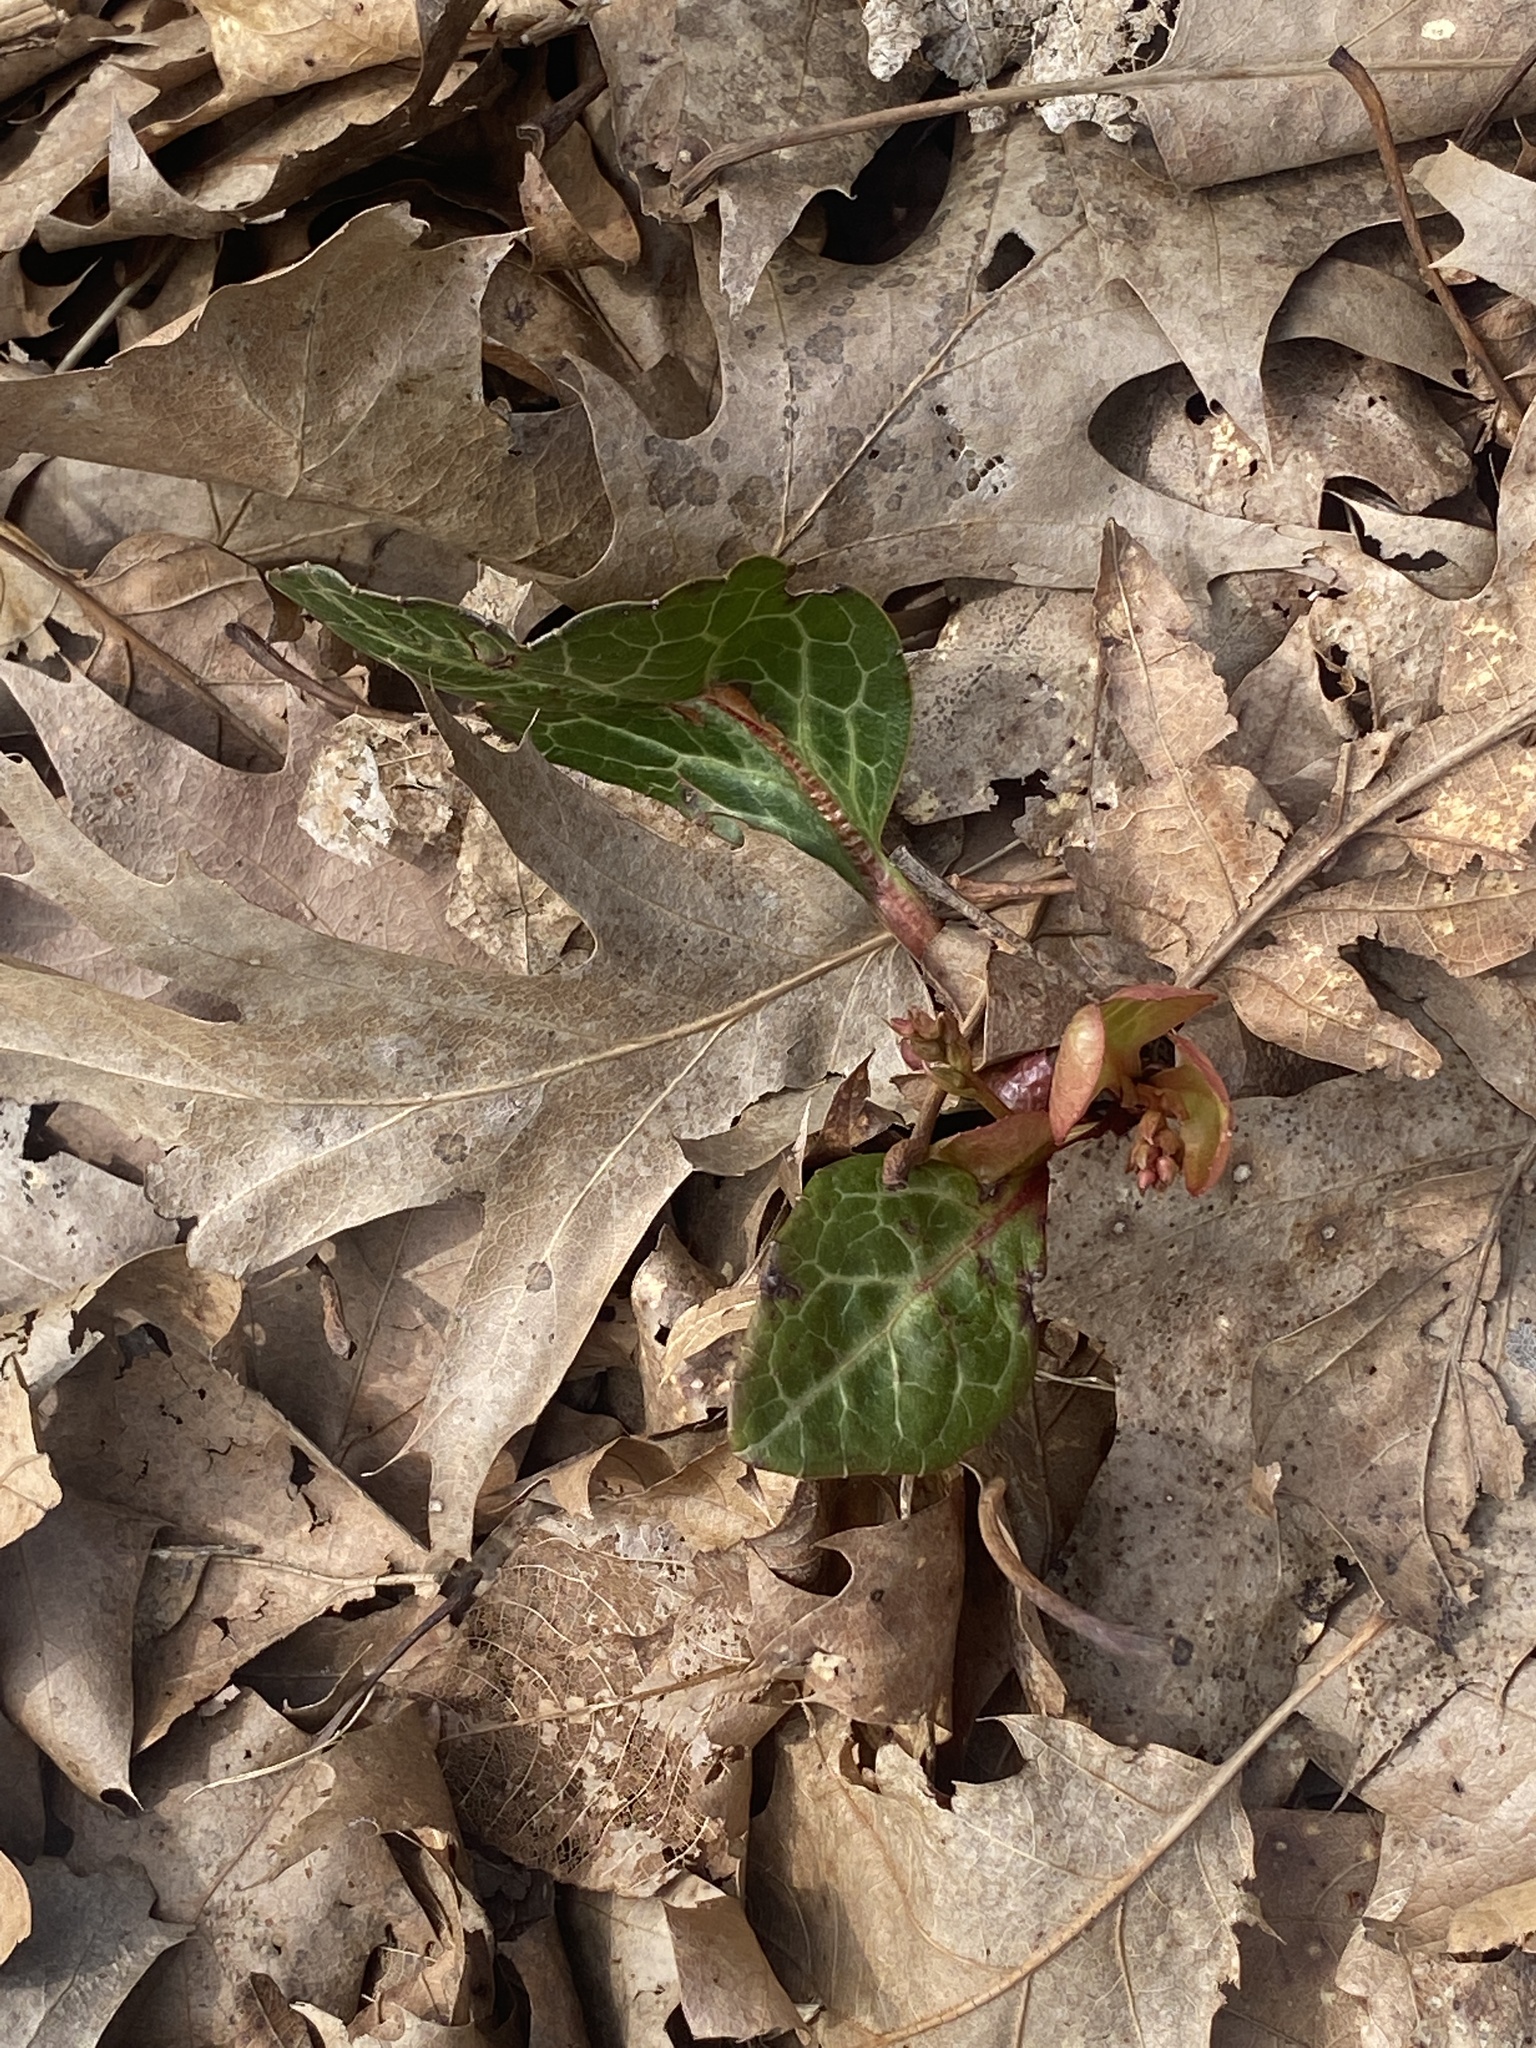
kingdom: Plantae
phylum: Tracheophyta
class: Magnoliopsida
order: Ericales
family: Ericaceae
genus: Pyrola
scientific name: Pyrola americana
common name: American wintergreen
